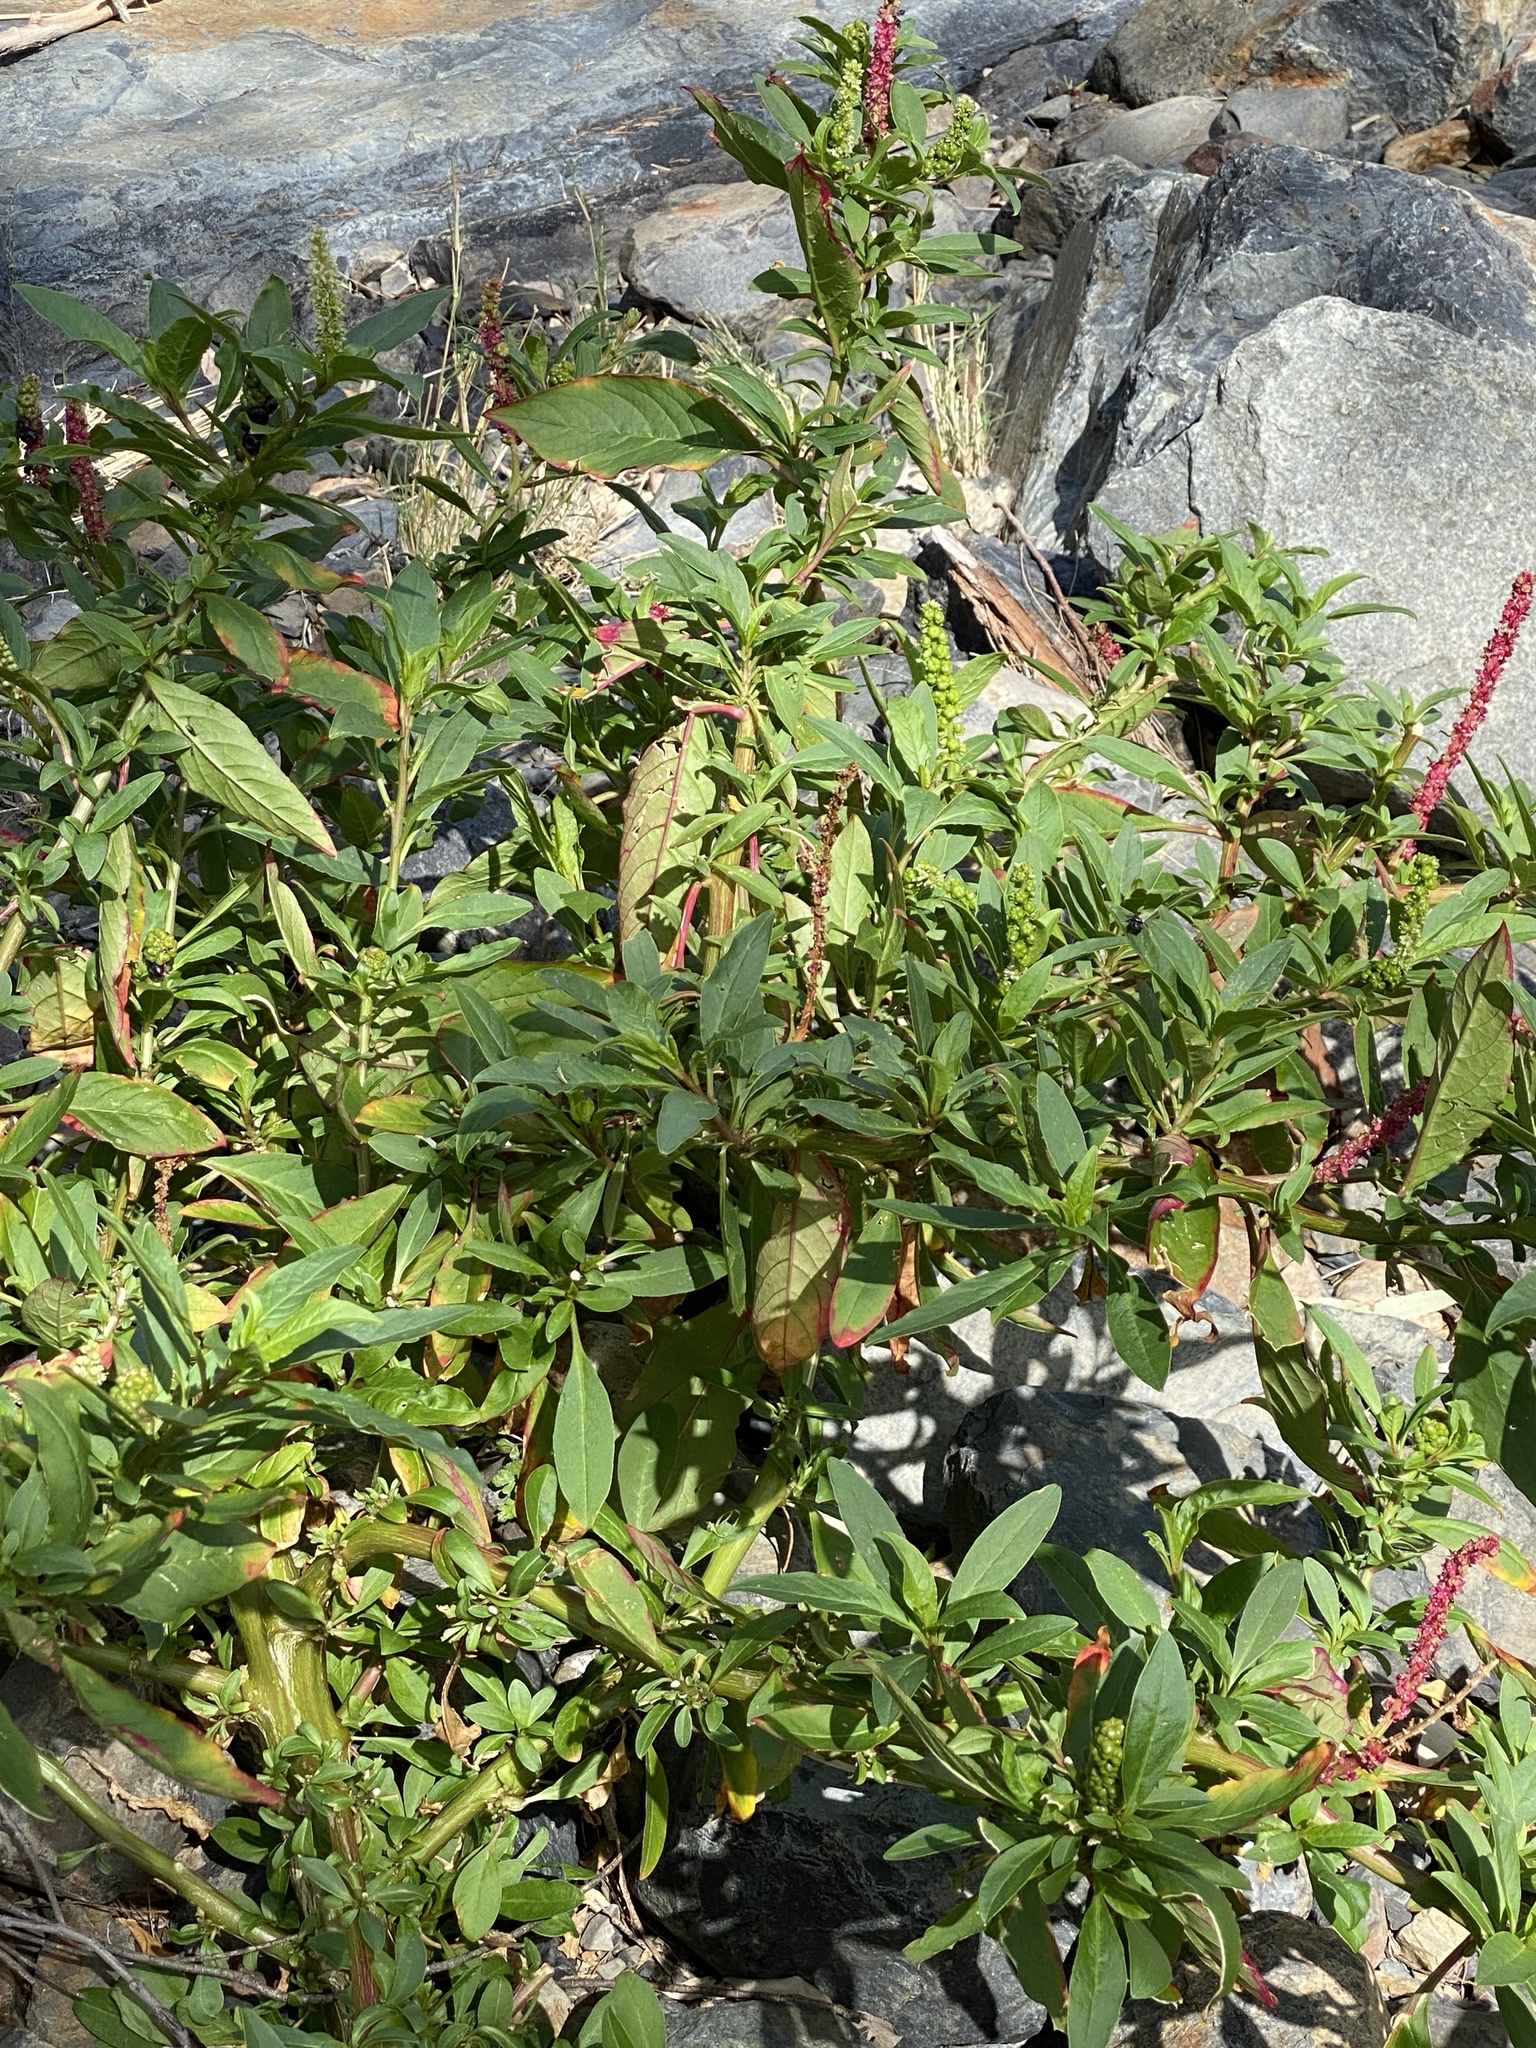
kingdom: Plantae
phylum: Tracheophyta
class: Magnoliopsida
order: Caryophyllales
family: Phytolaccaceae
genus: Phytolacca
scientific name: Phytolacca icosandra
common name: Button pokeweed
